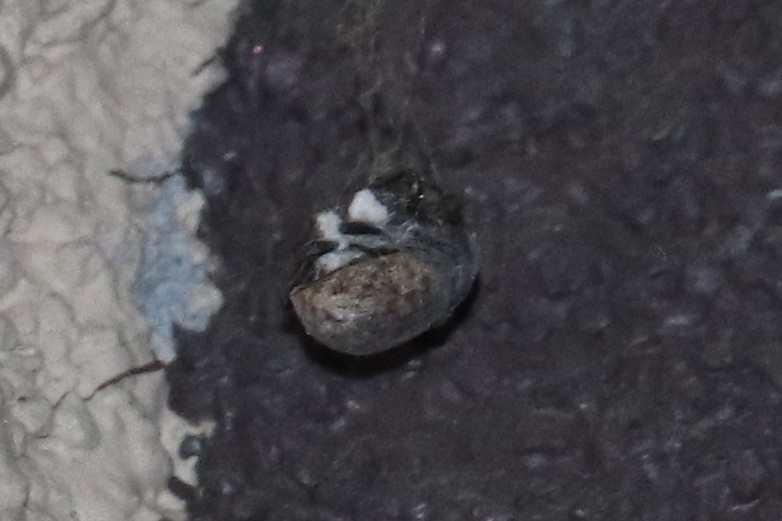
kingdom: Animalia
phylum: Arthropoda
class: Insecta
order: Coleoptera
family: Curculionidae
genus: Otiorhynchus
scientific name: Otiorhynchus raucus
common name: Weevil
